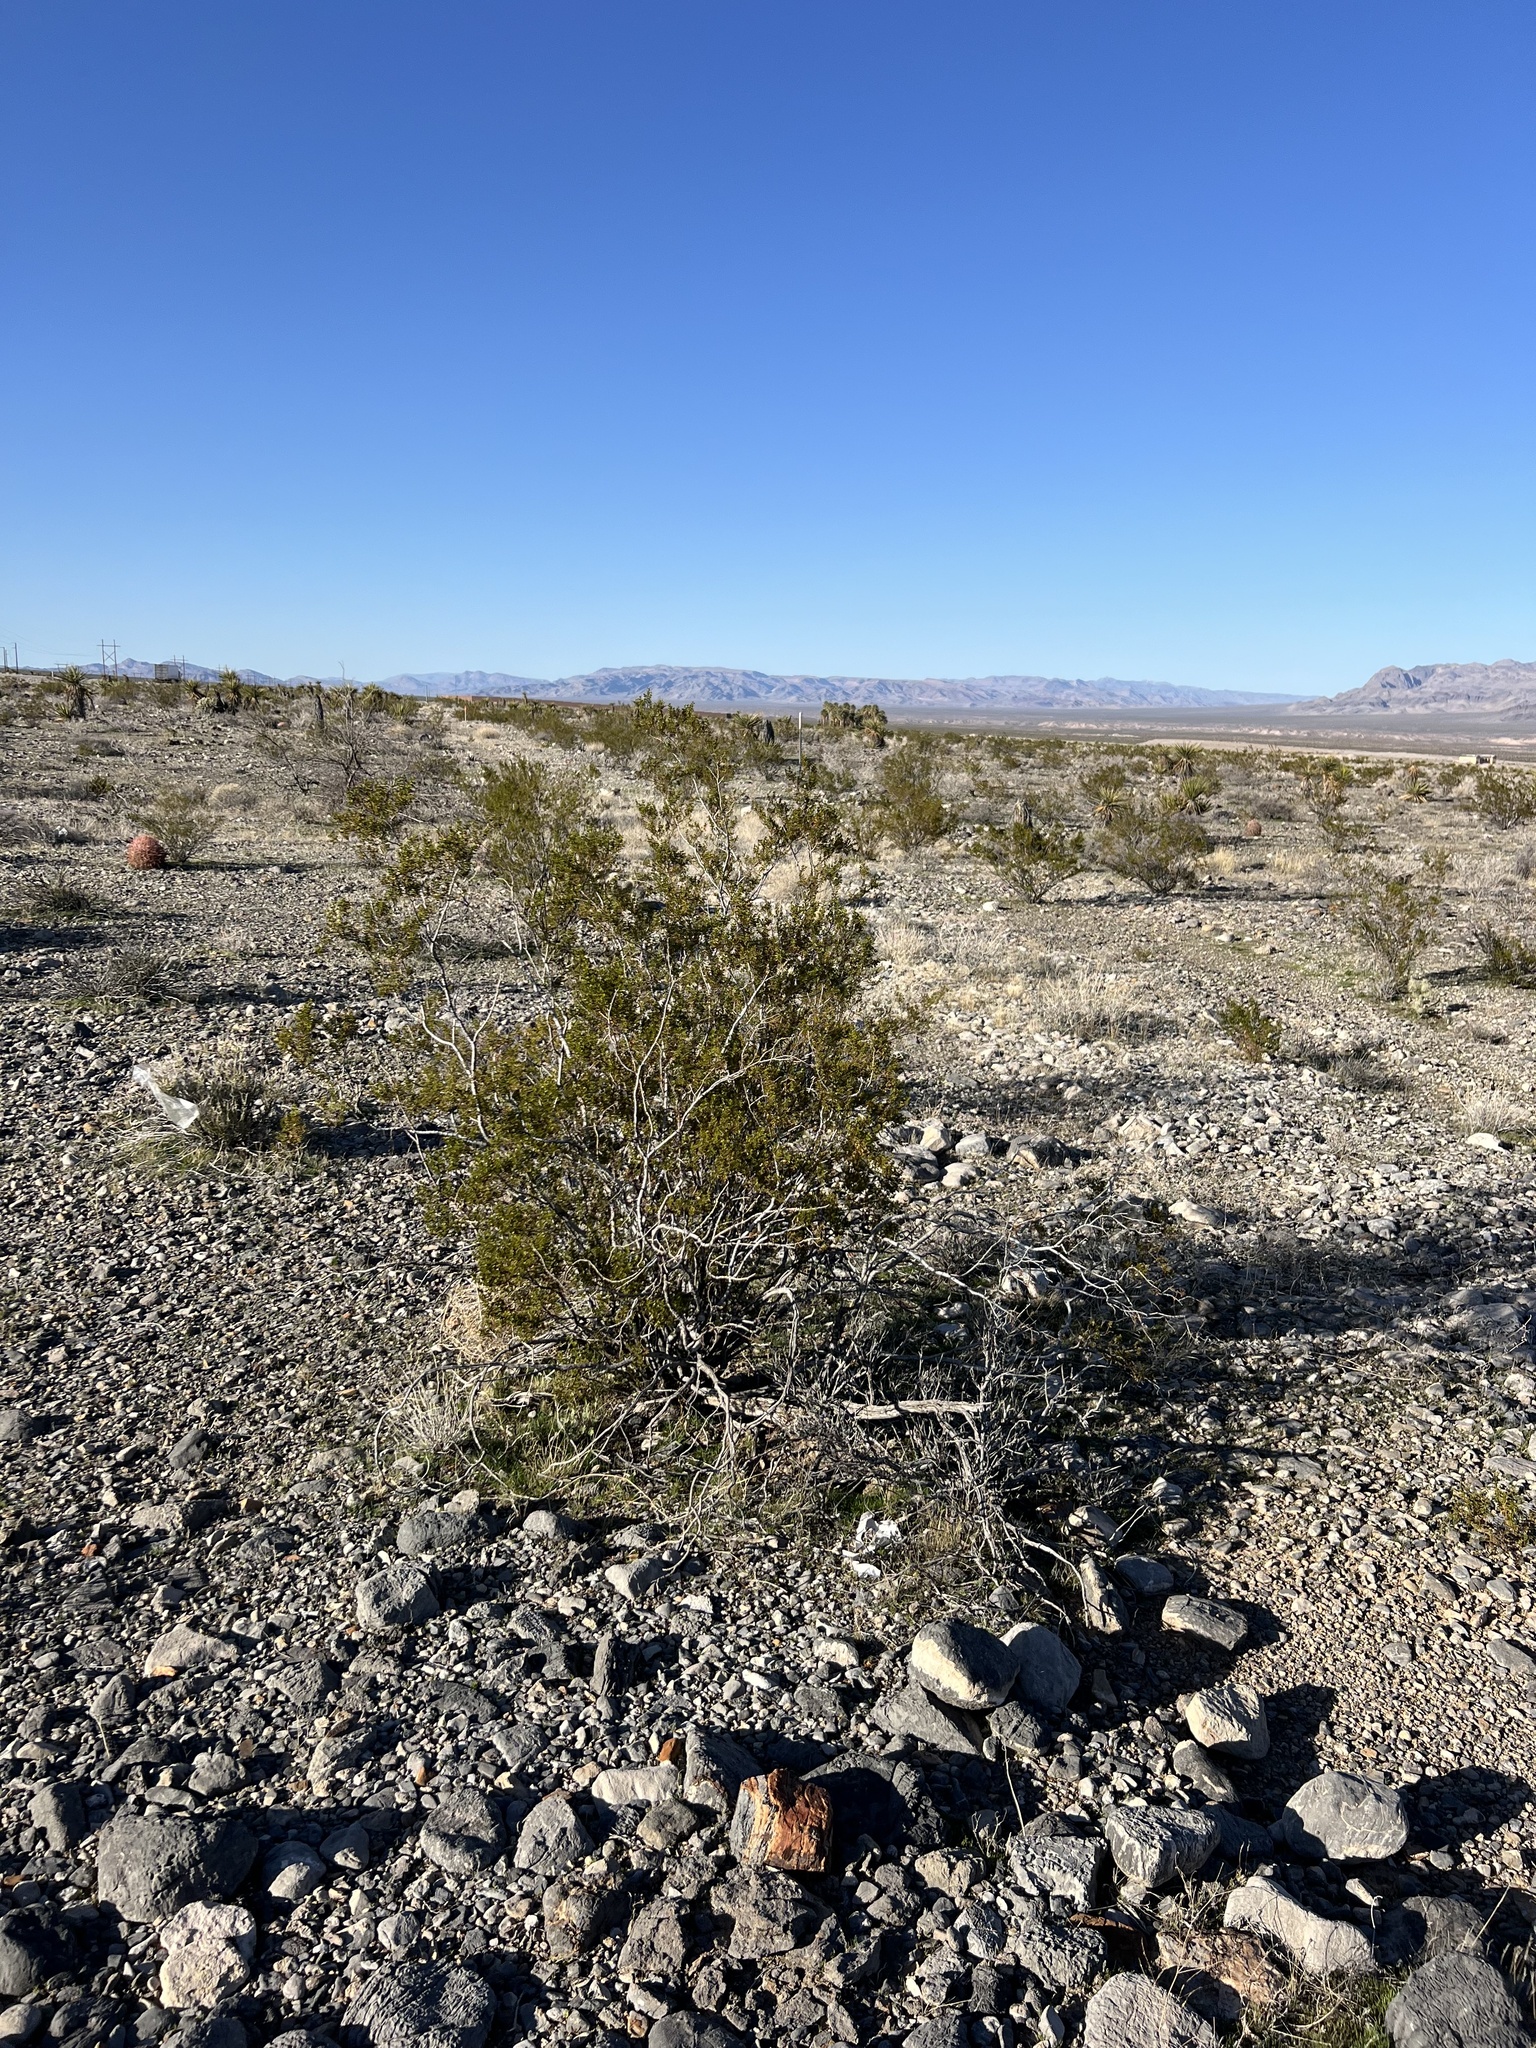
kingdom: Plantae
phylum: Tracheophyta
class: Magnoliopsida
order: Zygophyllales
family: Zygophyllaceae
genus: Larrea
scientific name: Larrea tridentata
